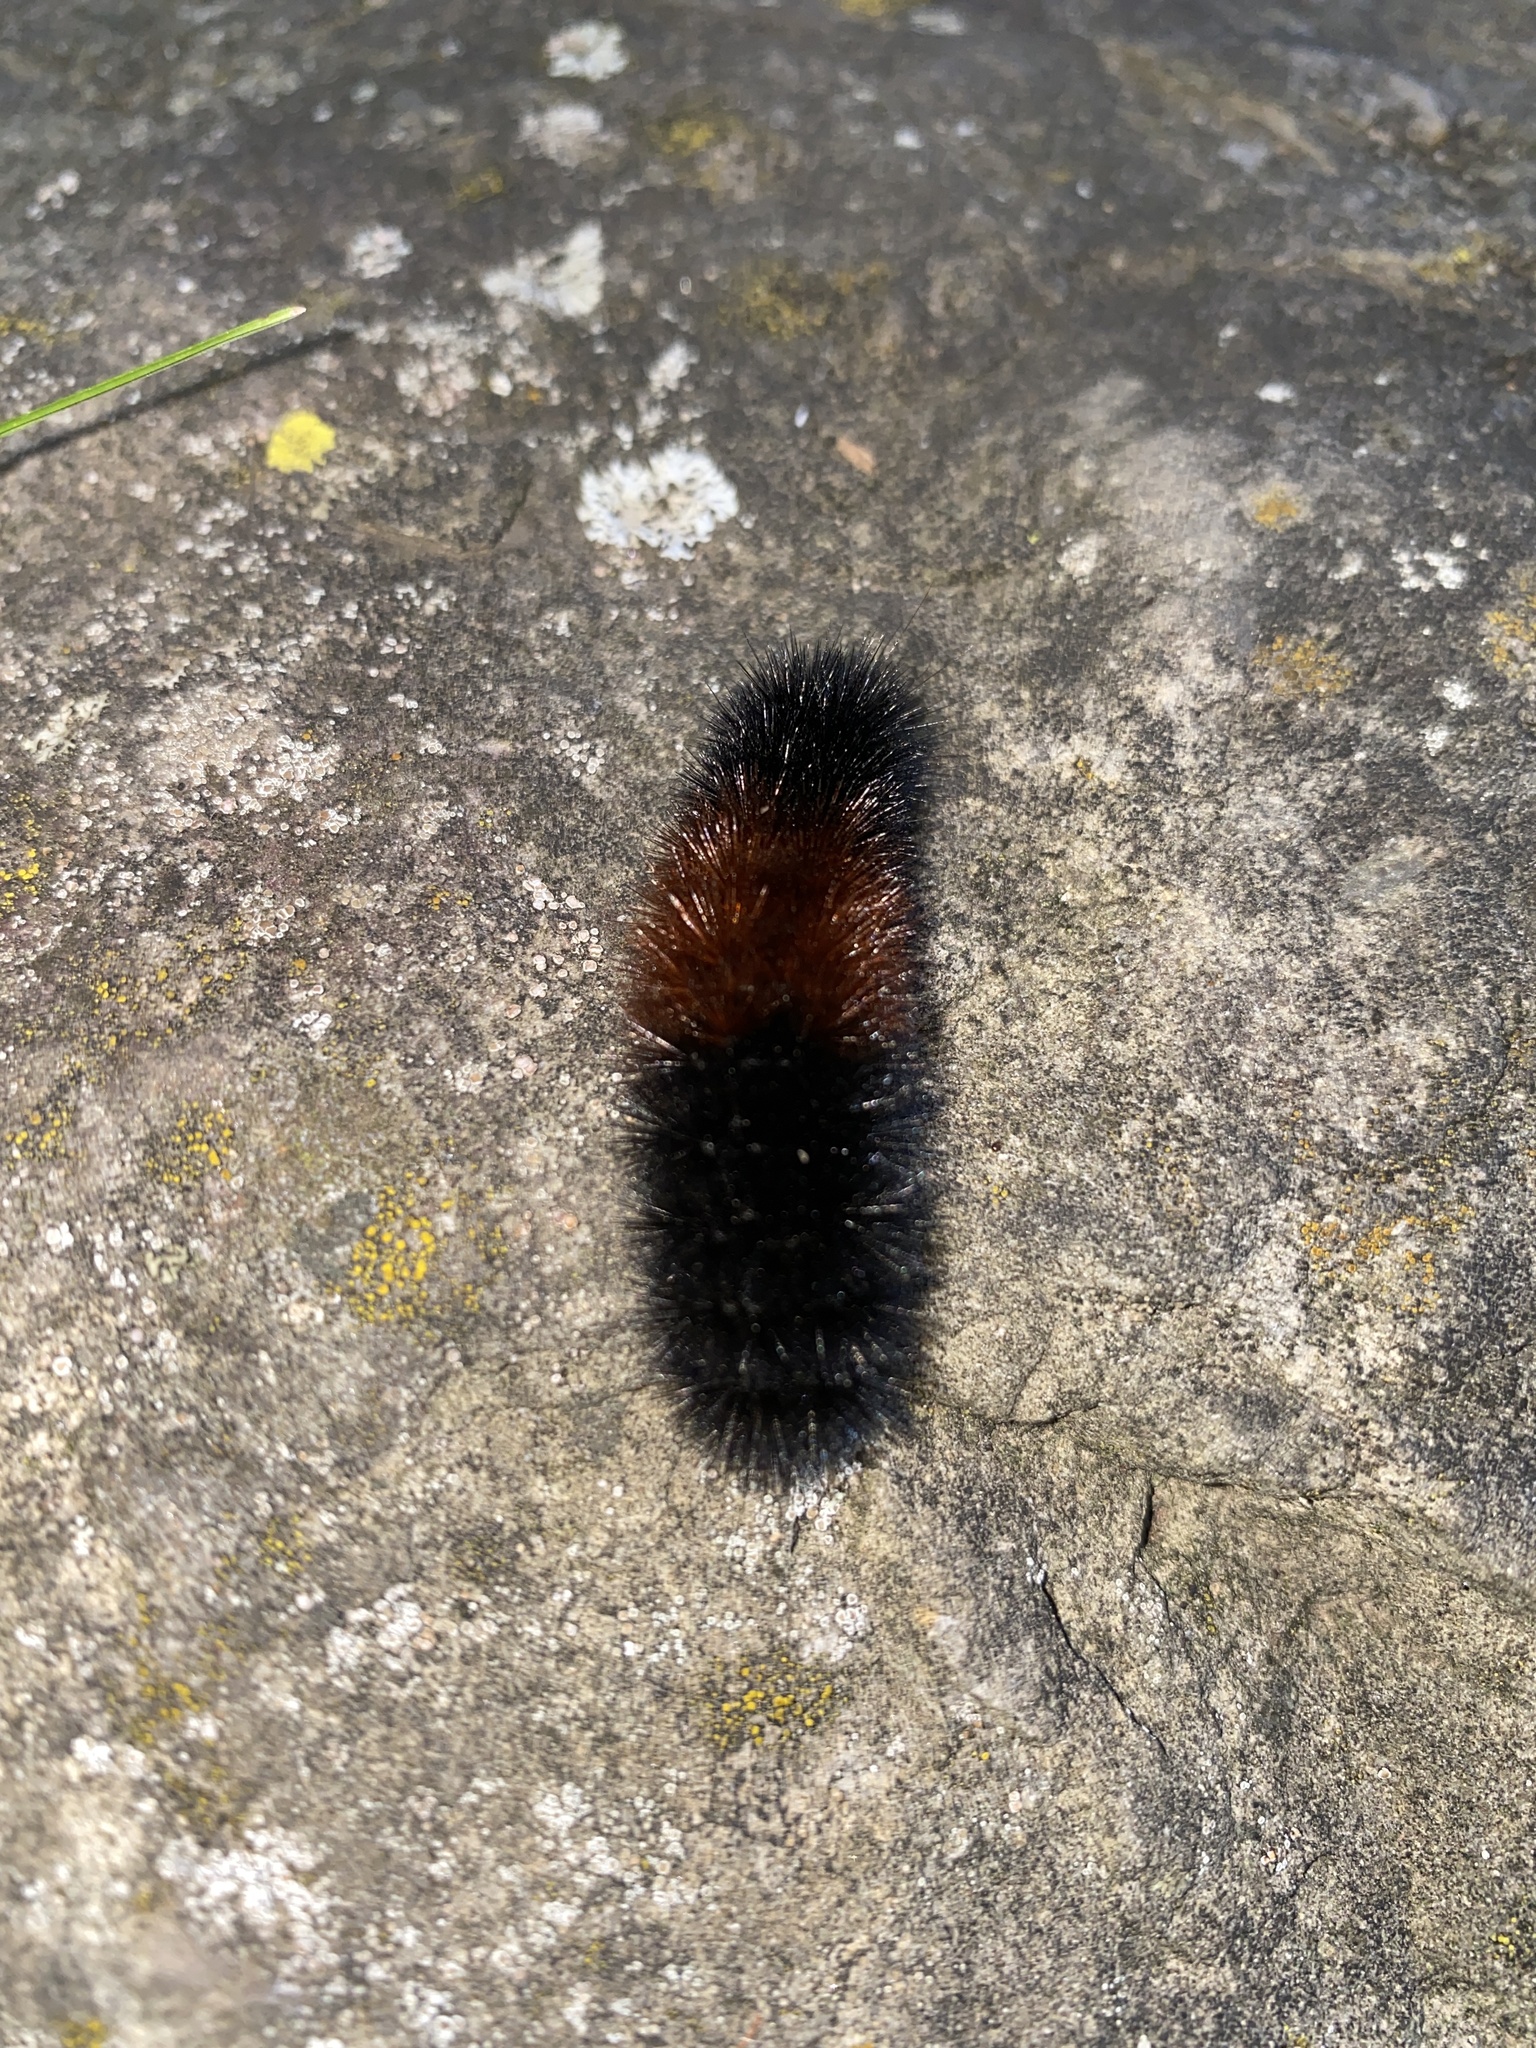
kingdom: Animalia
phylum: Arthropoda
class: Insecta
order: Lepidoptera
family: Erebidae
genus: Pyrrharctia
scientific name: Pyrrharctia isabella
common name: Isabella tiger moth
